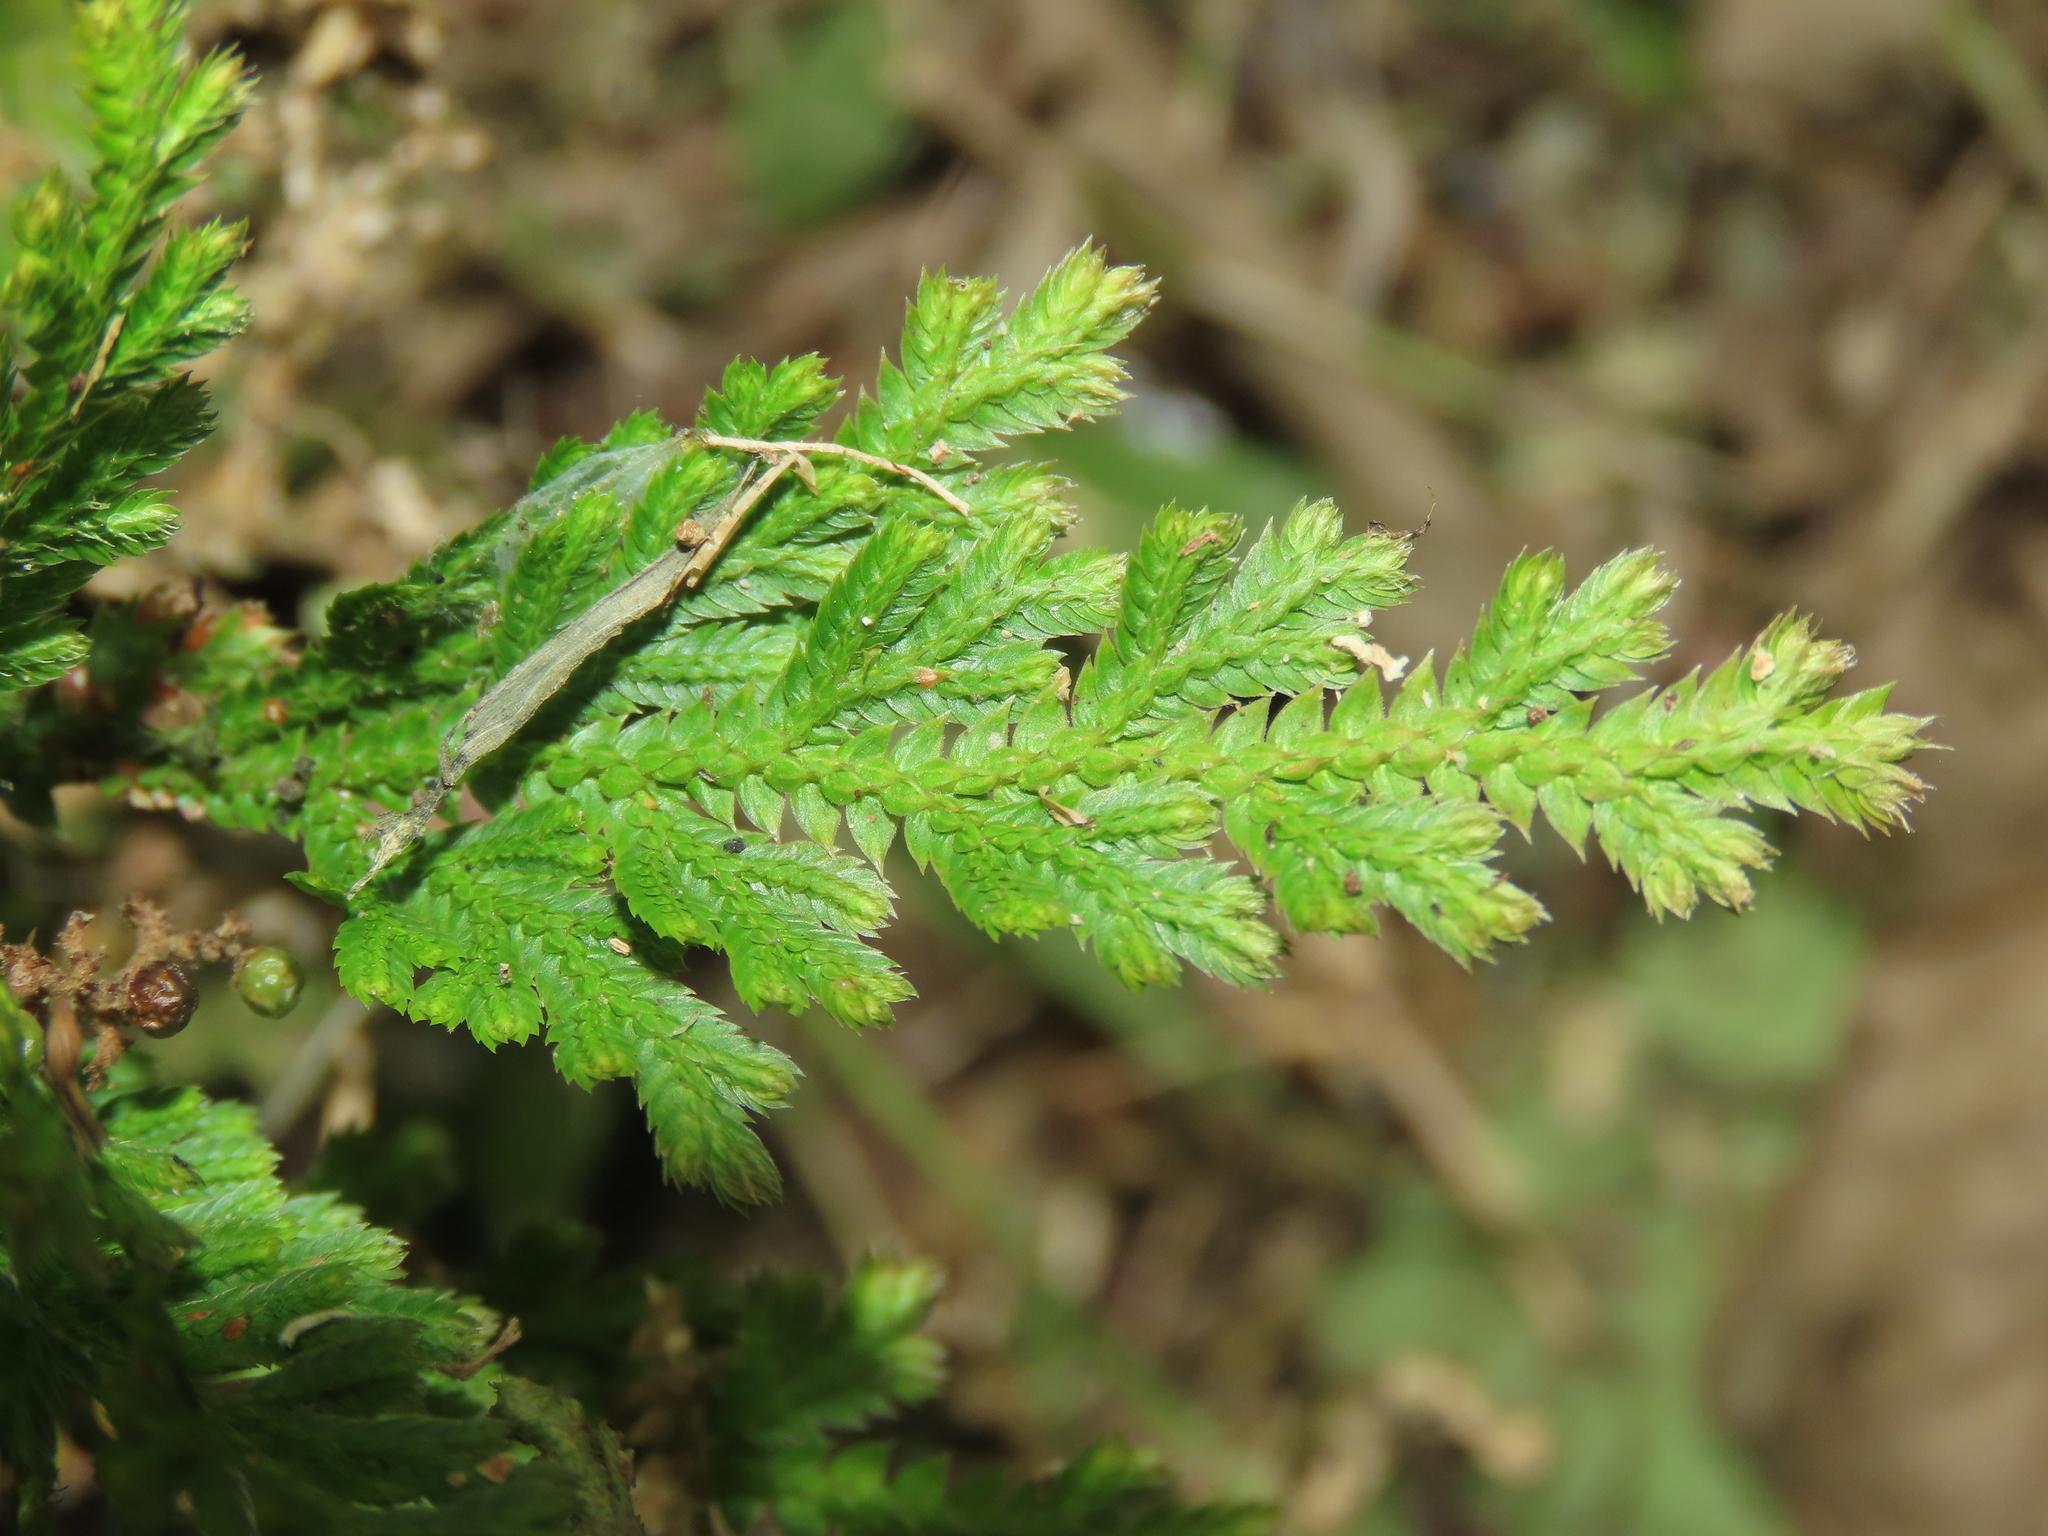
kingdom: Plantae
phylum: Tracheophyta
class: Lycopodiopsida
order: Selaginellales
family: Selaginellaceae
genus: Selaginella
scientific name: Selaginella moellendorffii
